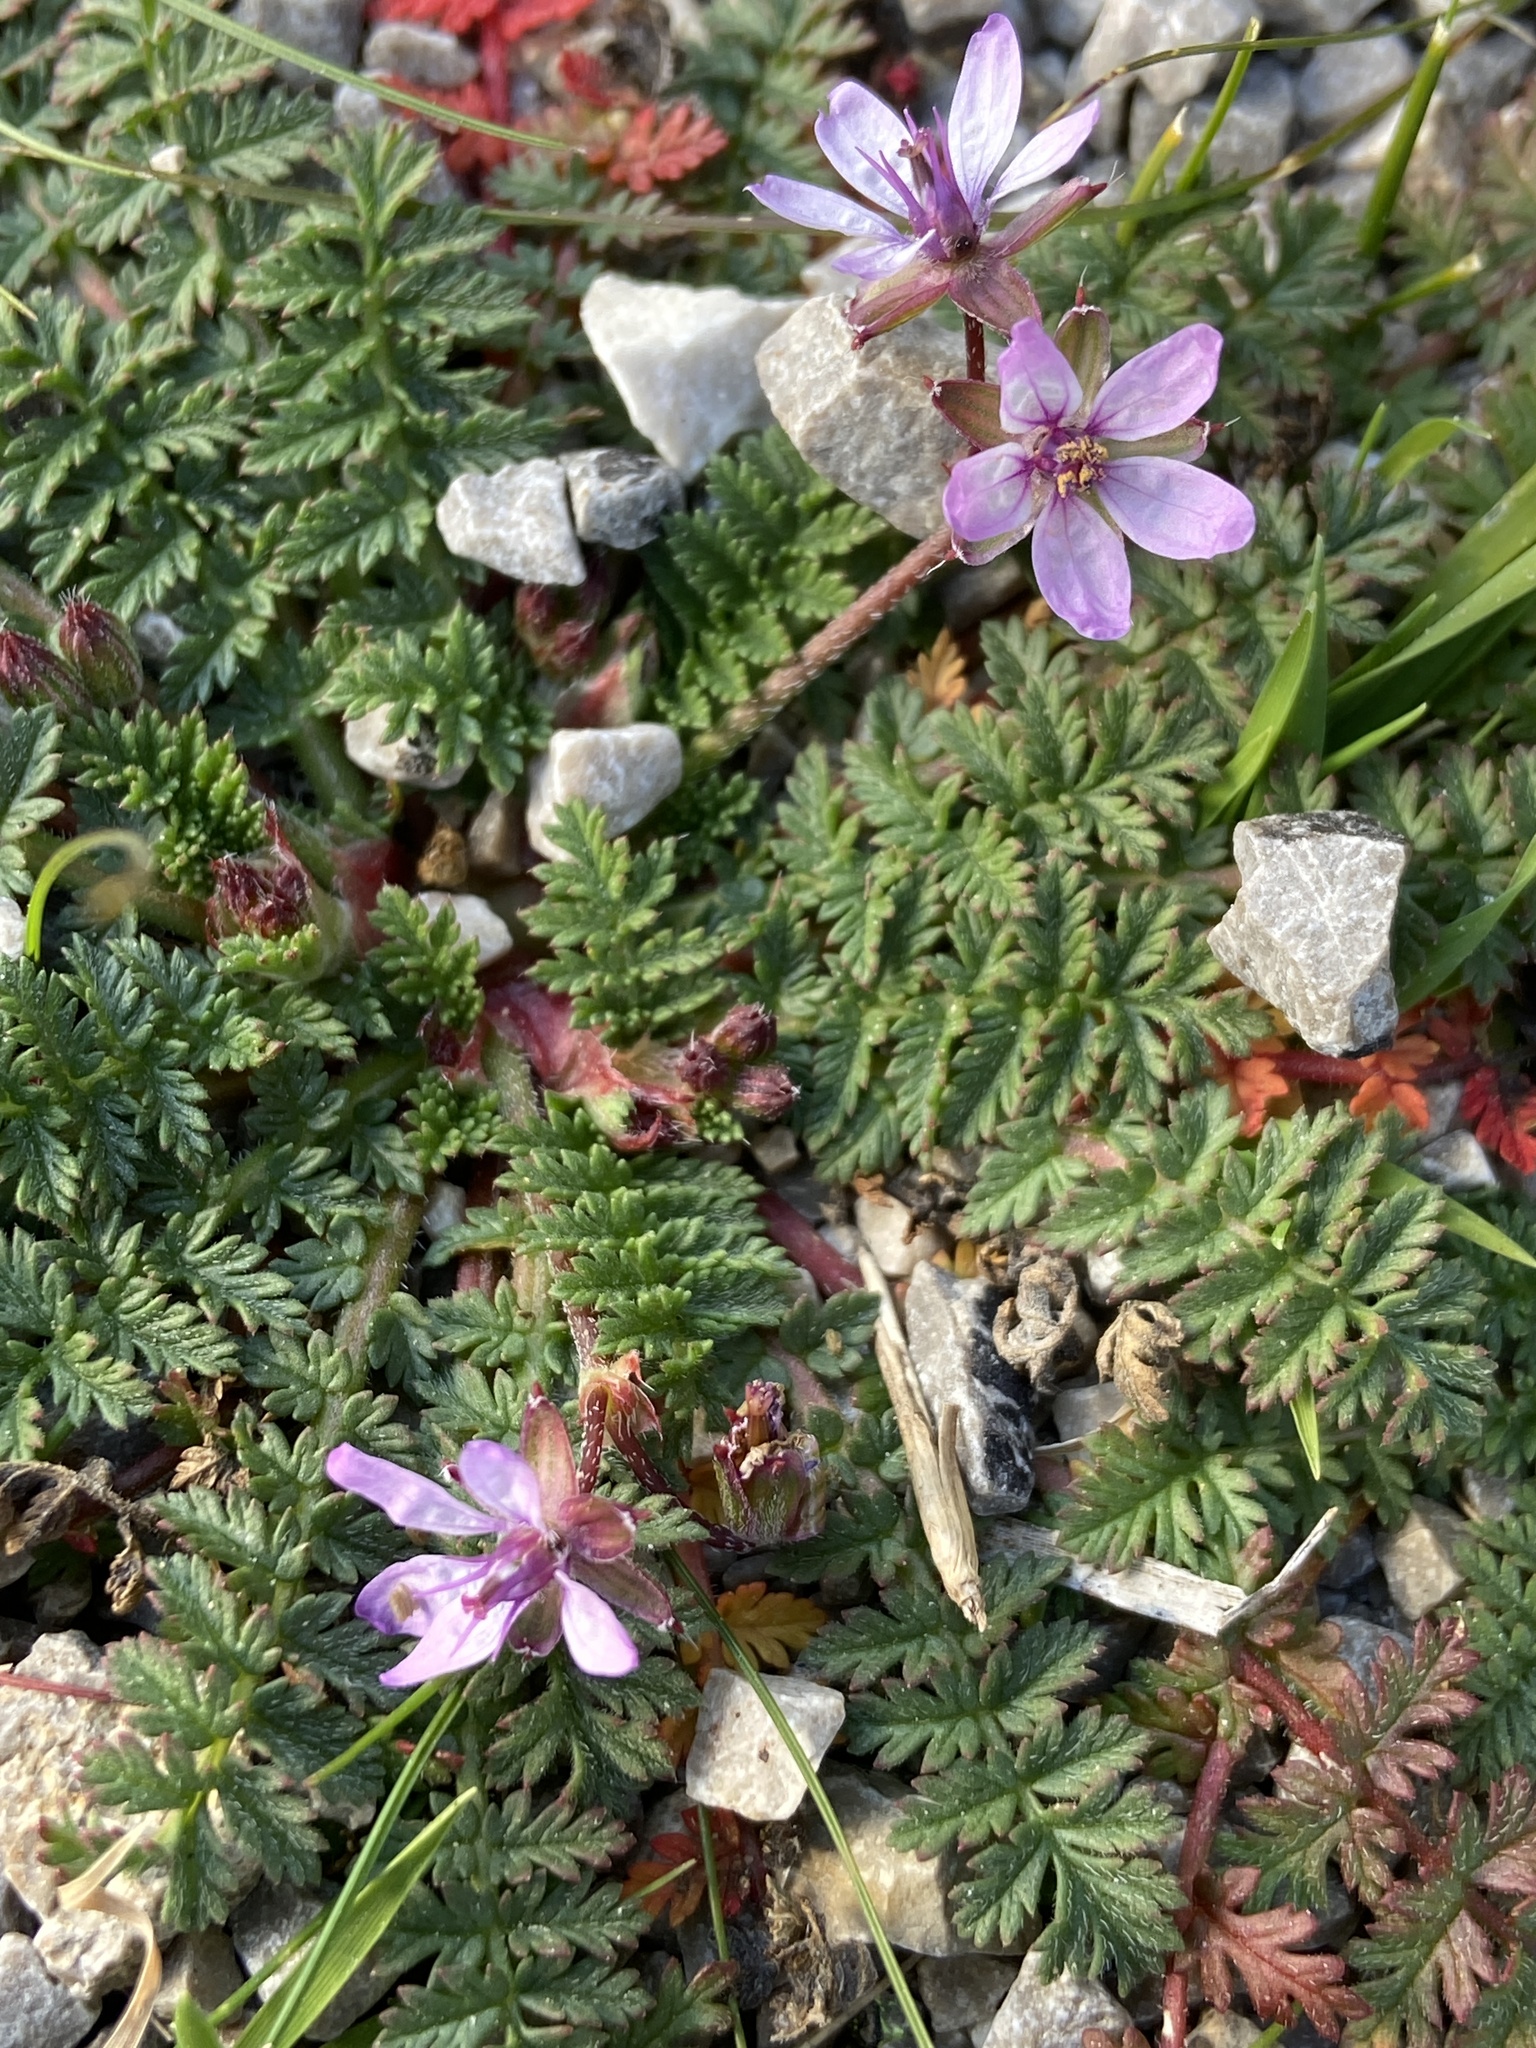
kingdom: Plantae
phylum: Tracheophyta
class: Magnoliopsida
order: Geraniales
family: Geraniaceae
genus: Erodium
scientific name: Erodium cicutarium
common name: Common stork's-bill
